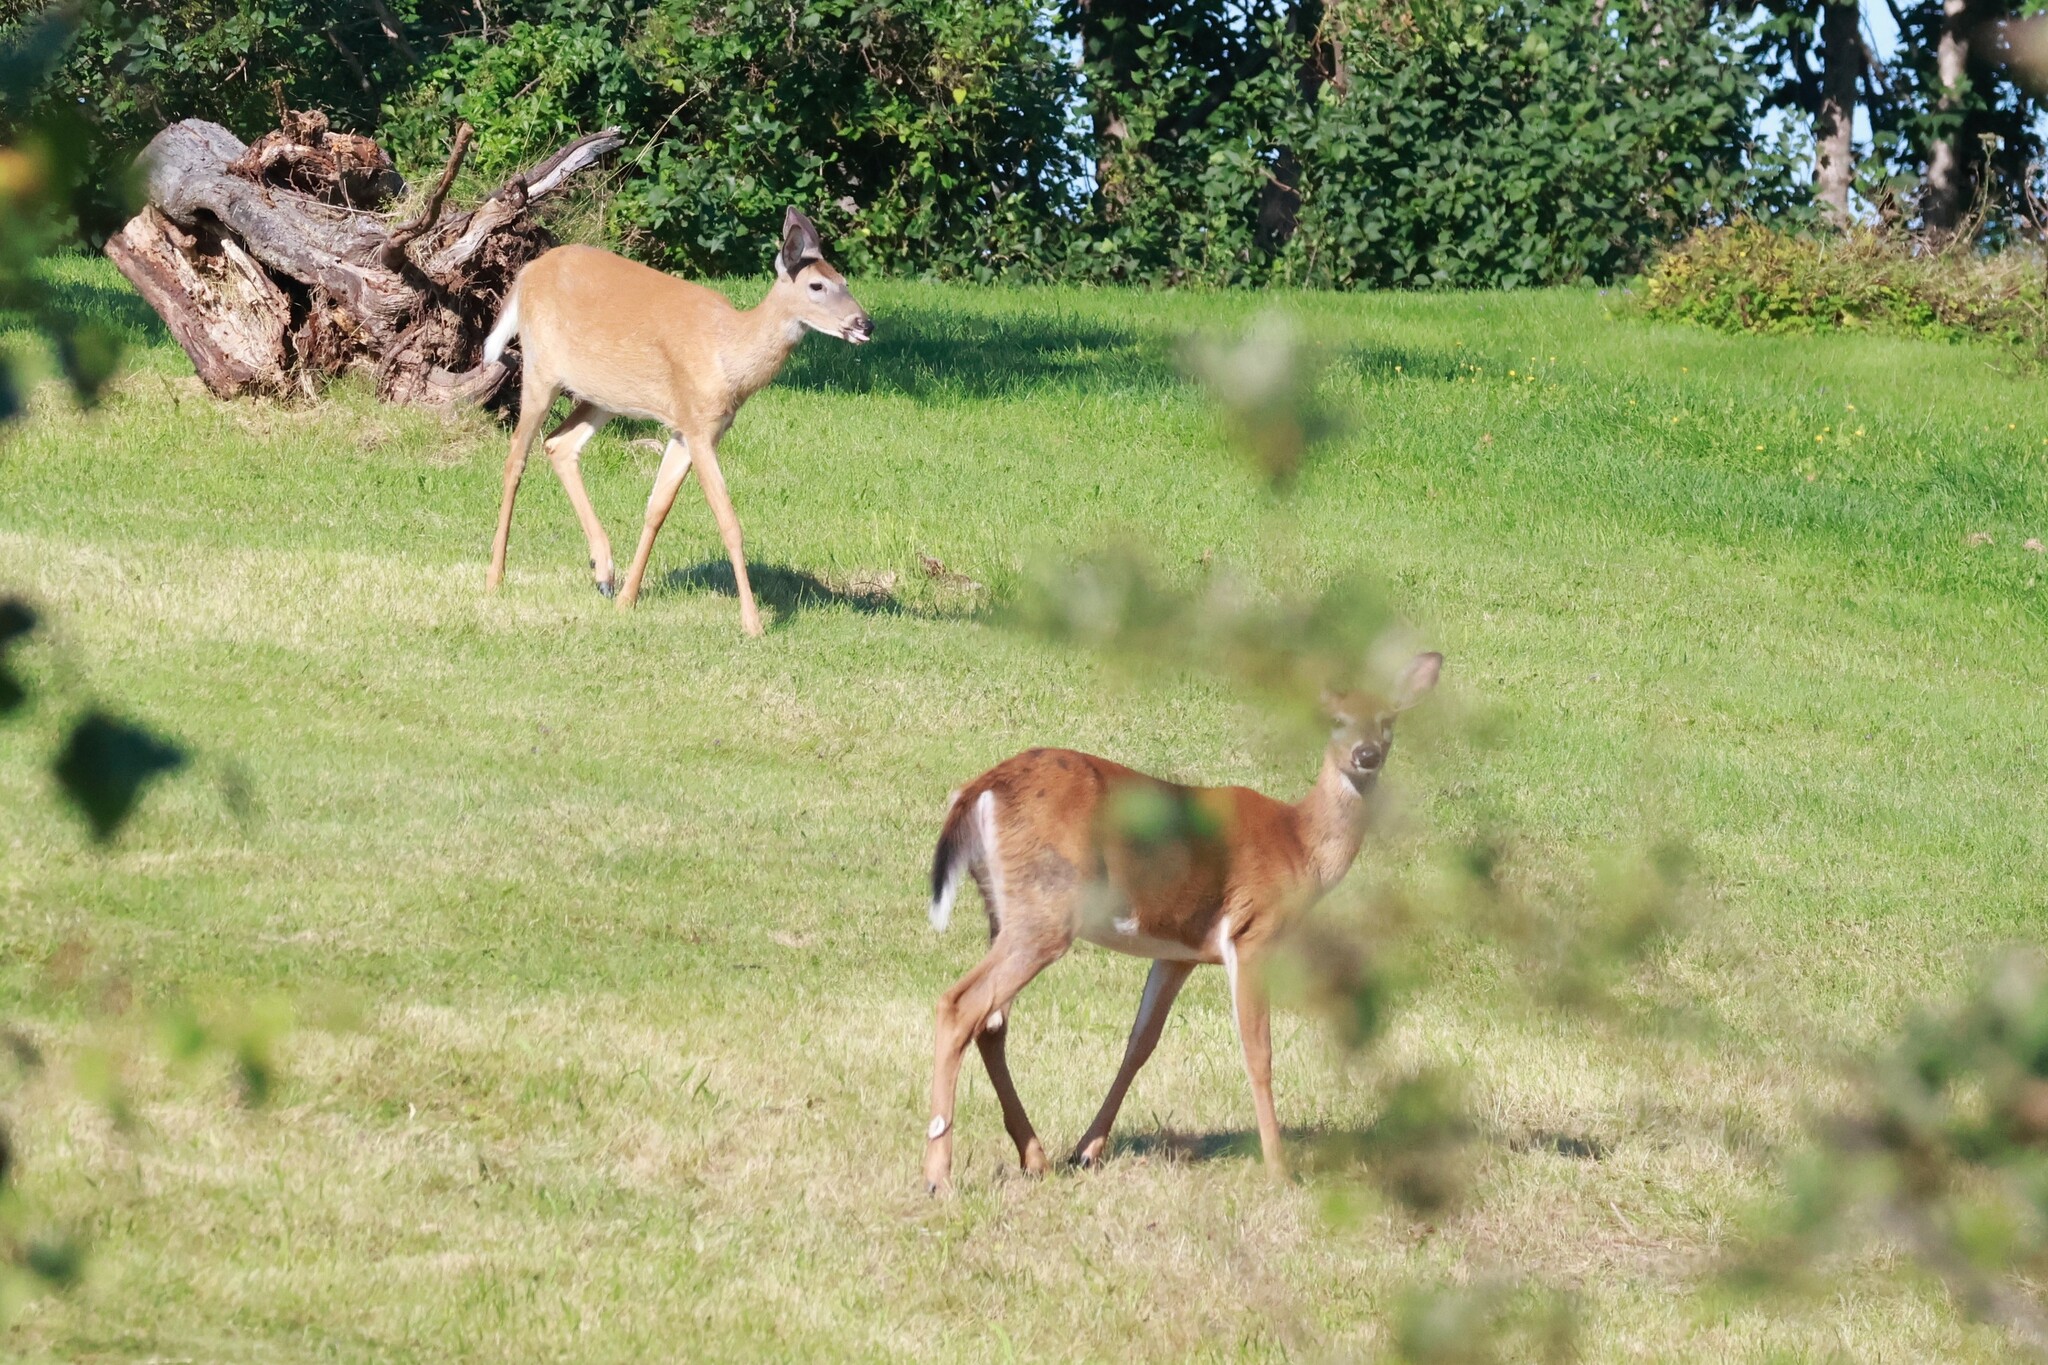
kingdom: Animalia
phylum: Chordata
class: Mammalia
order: Artiodactyla
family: Cervidae
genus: Odocoileus
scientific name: Odocoileus virginianus
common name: White-tailed deer
